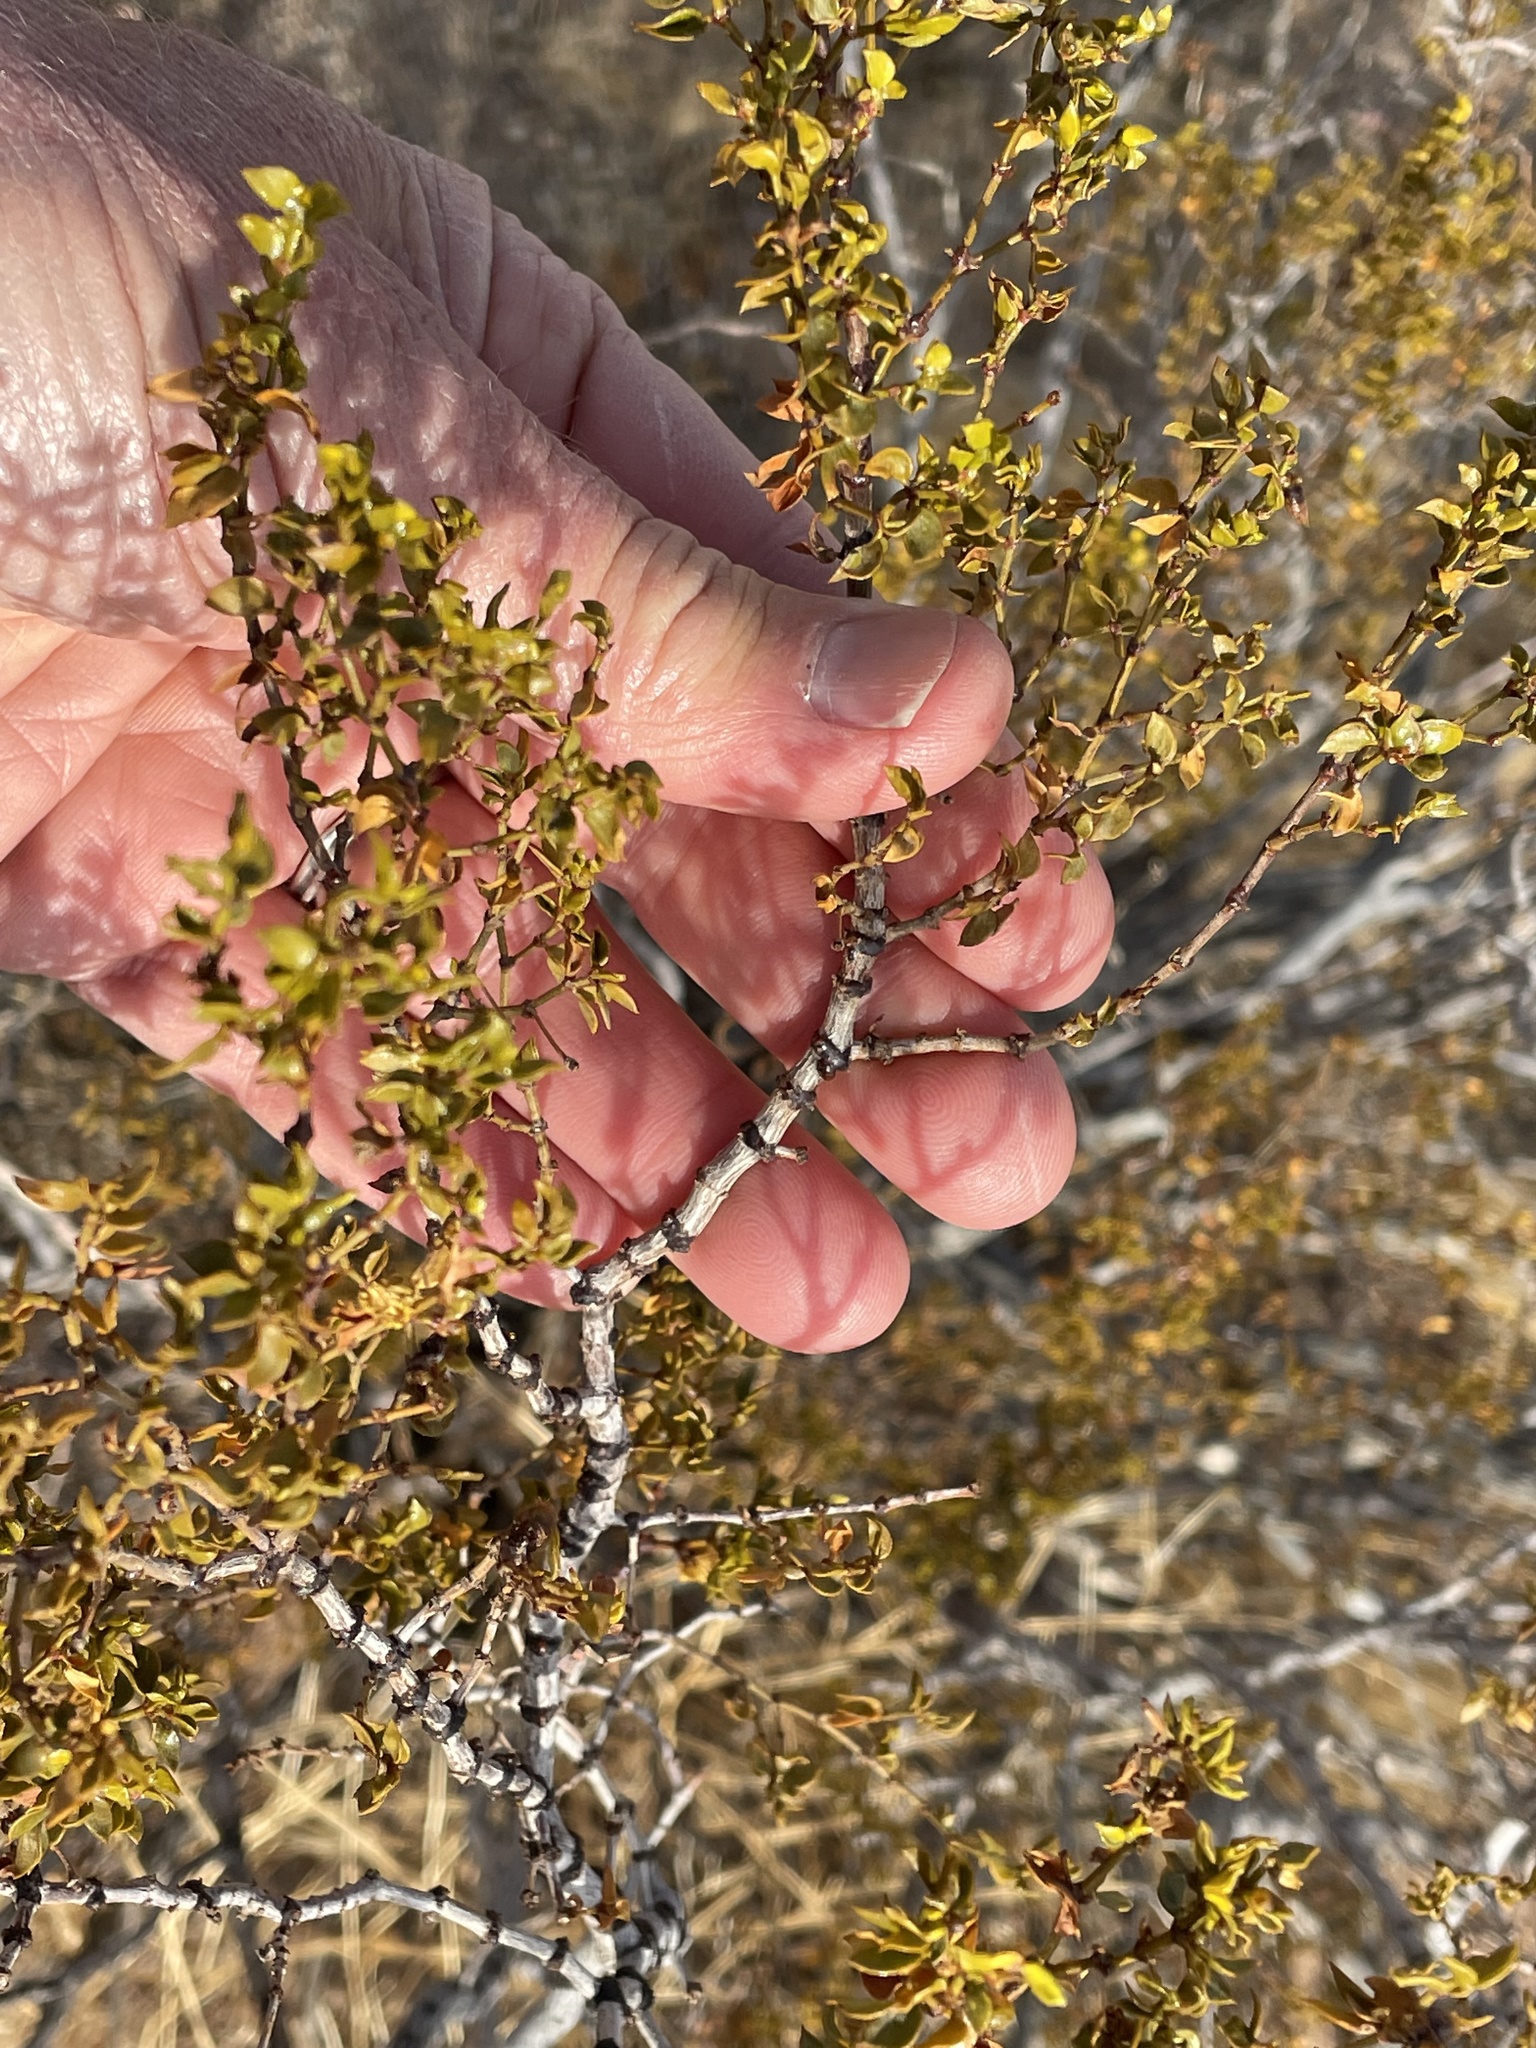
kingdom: Plantae
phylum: Tracheophyta
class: Magnoliopsida
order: Zygophyllales
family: Zygophyllaceae
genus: Larrea
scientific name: Larrea tridentata
